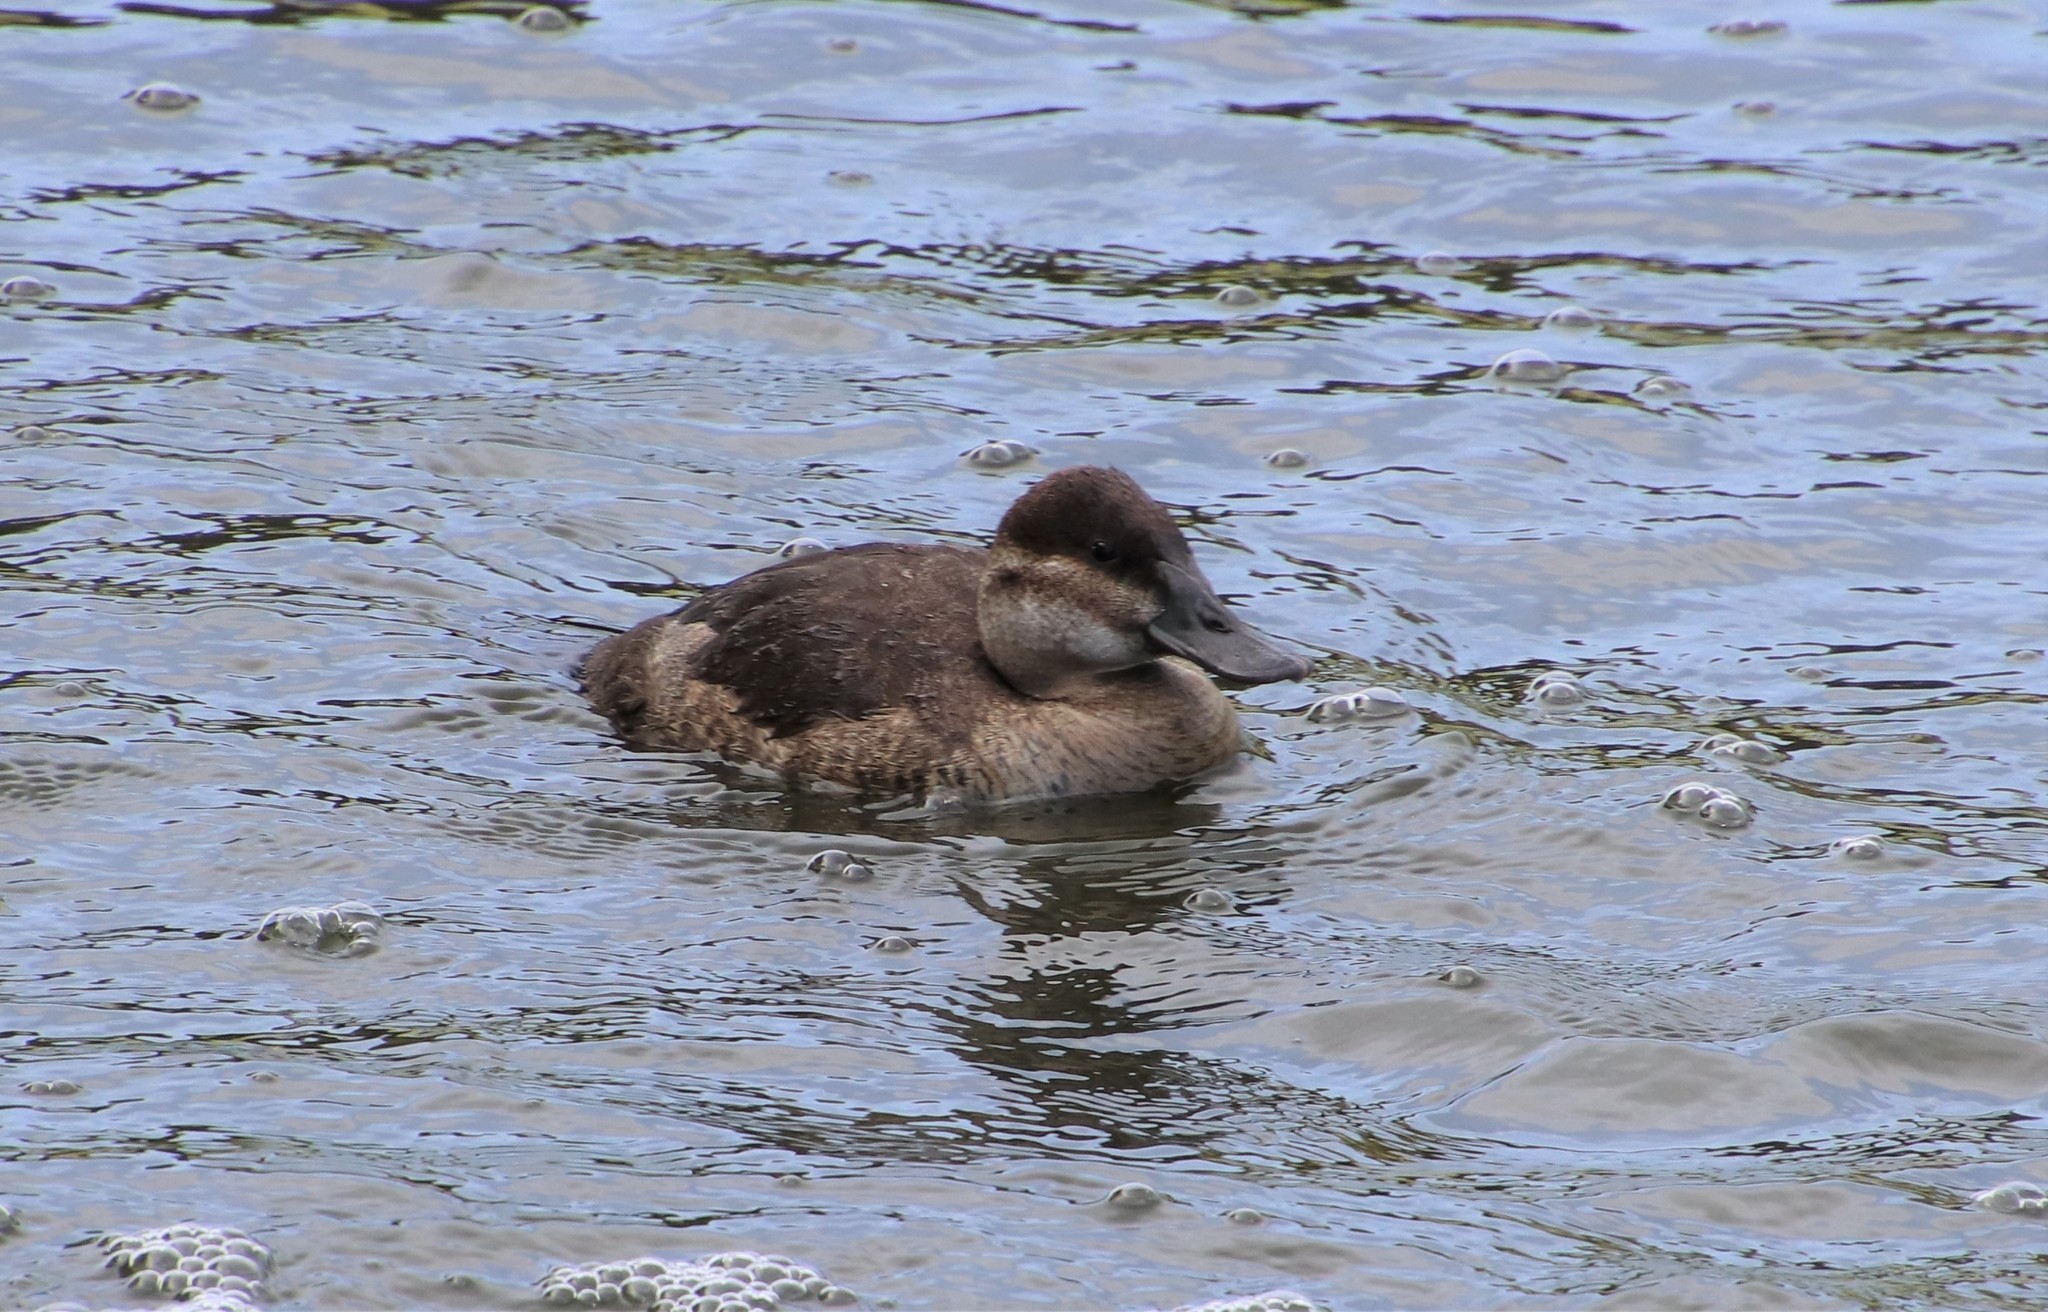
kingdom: Animalia
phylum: Chordata
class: Aves
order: Anseriformes
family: Anatidae
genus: Oxyura
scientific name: Oxyura jamaicensis
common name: Ruddy duck
